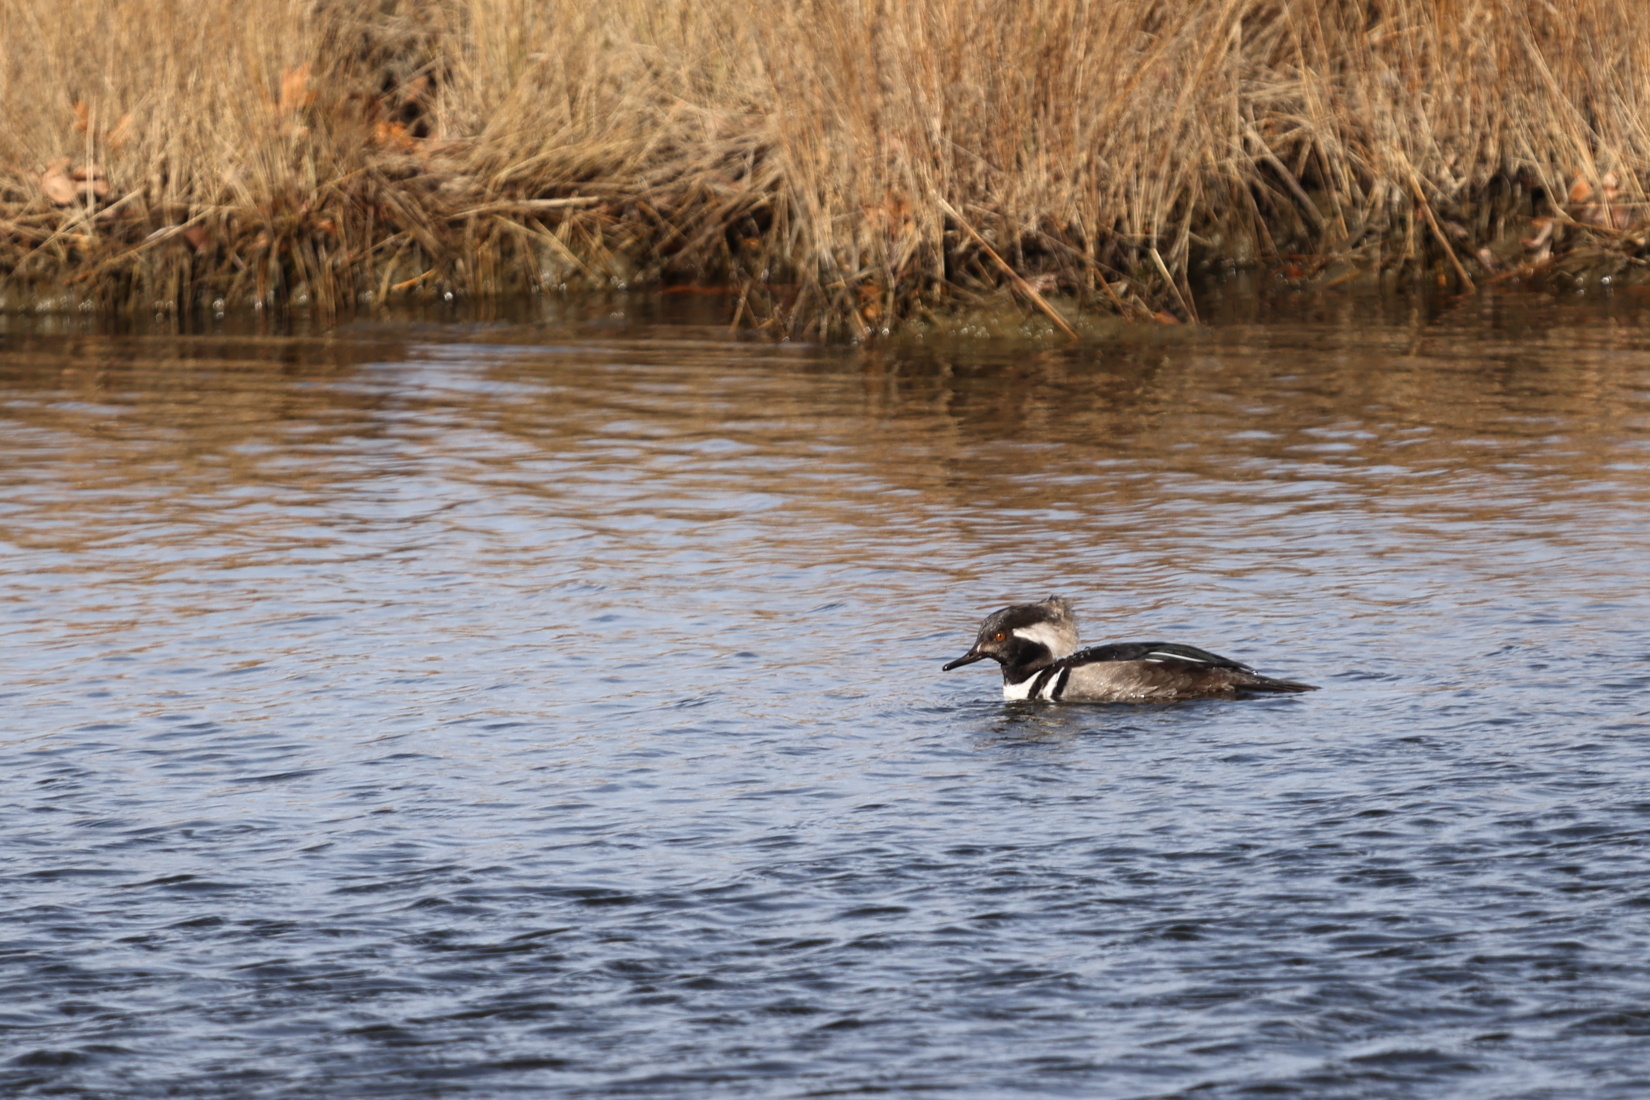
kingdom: Animalia
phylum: Chordata
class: Aves
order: Anseriformes
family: Anatidae
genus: Lophodytes
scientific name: Lophodytes cucullatus
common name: Hooded merganser
